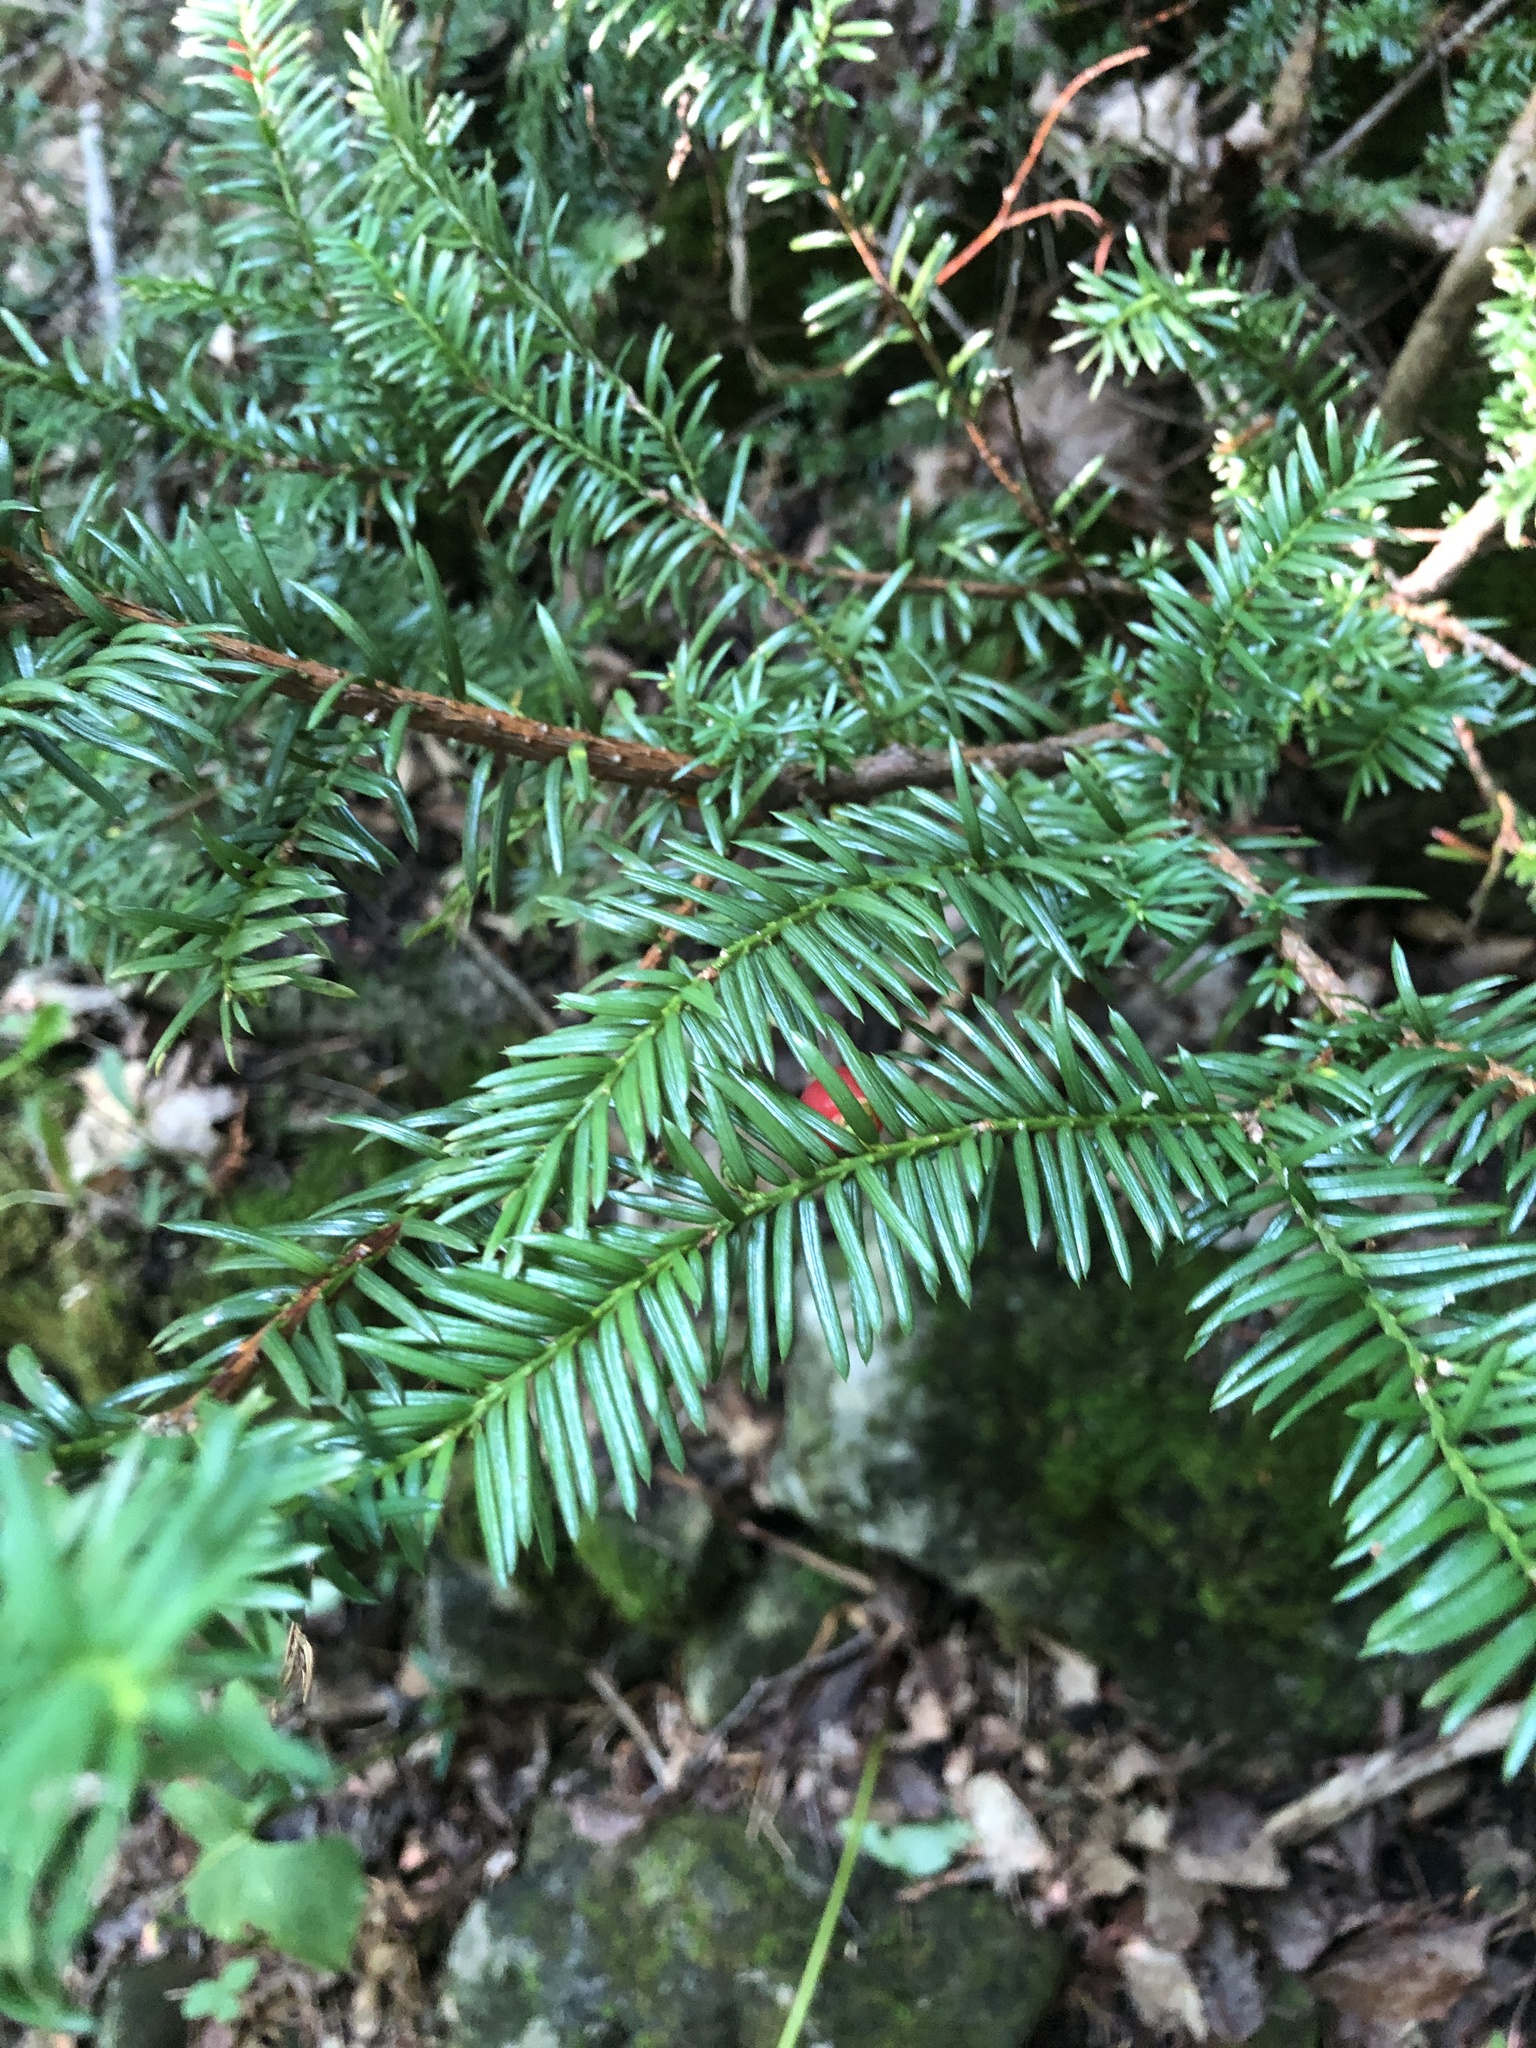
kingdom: Plantae
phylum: Tracheophyta
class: Pinopsida
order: Pinales
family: Taxaceae
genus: Taxus
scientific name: Taxus canadensis
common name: American yew
